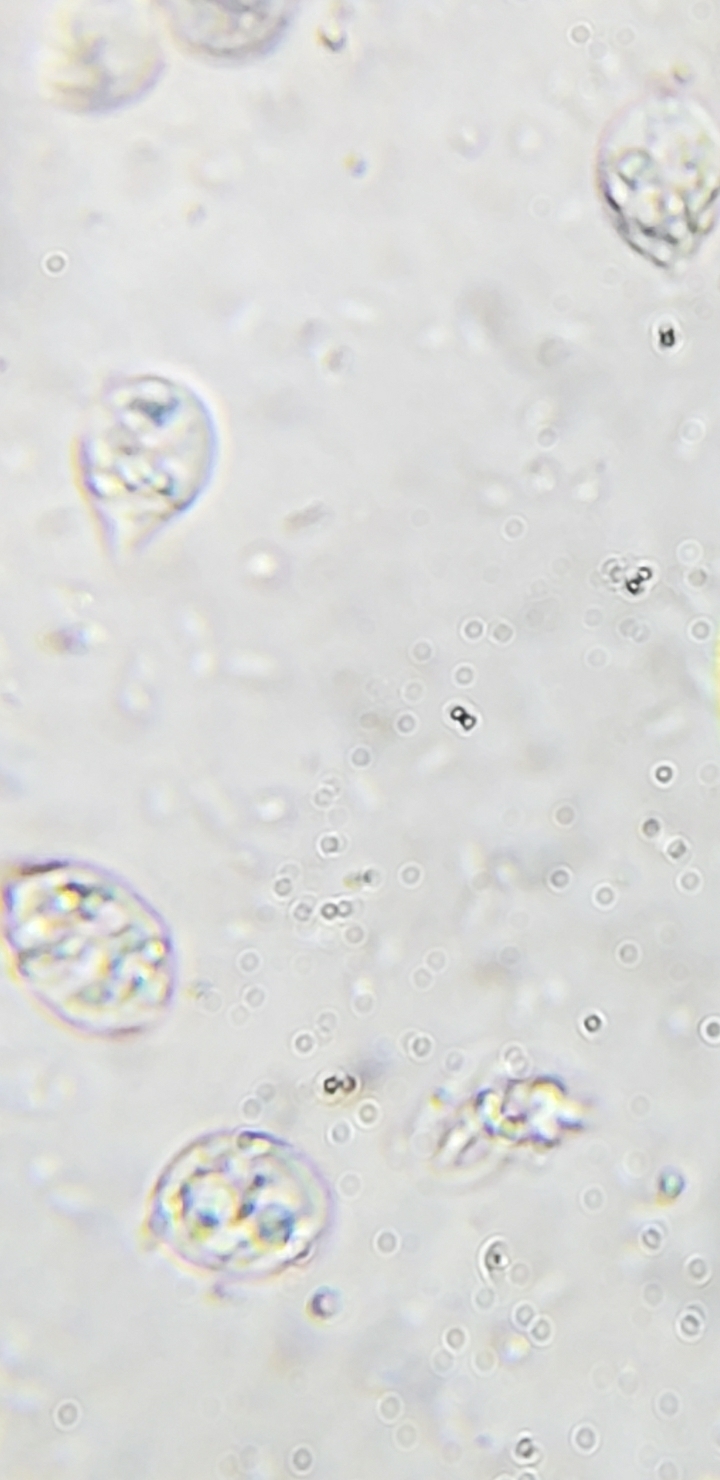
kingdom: Fungi
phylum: Basidiomycota
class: Agaricomycetes
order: Cantharellales
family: Tulasnellaceae
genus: Tulasnella
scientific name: Tulasnella violea
